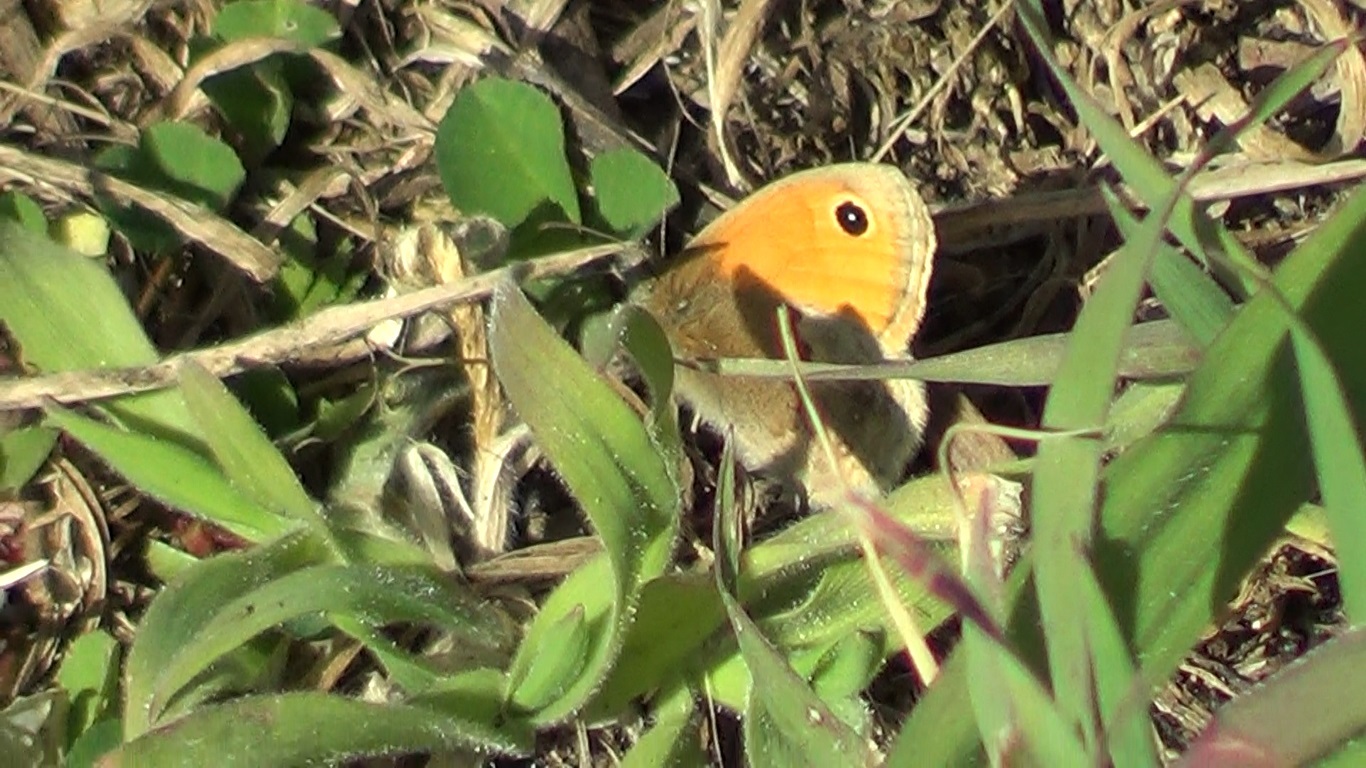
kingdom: Animalia
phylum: Arthropoda
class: Insecta
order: Lepidoptera
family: Nymphalidae
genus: Coenonympha
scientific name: Coenonympha pamphilus
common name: Small heath
